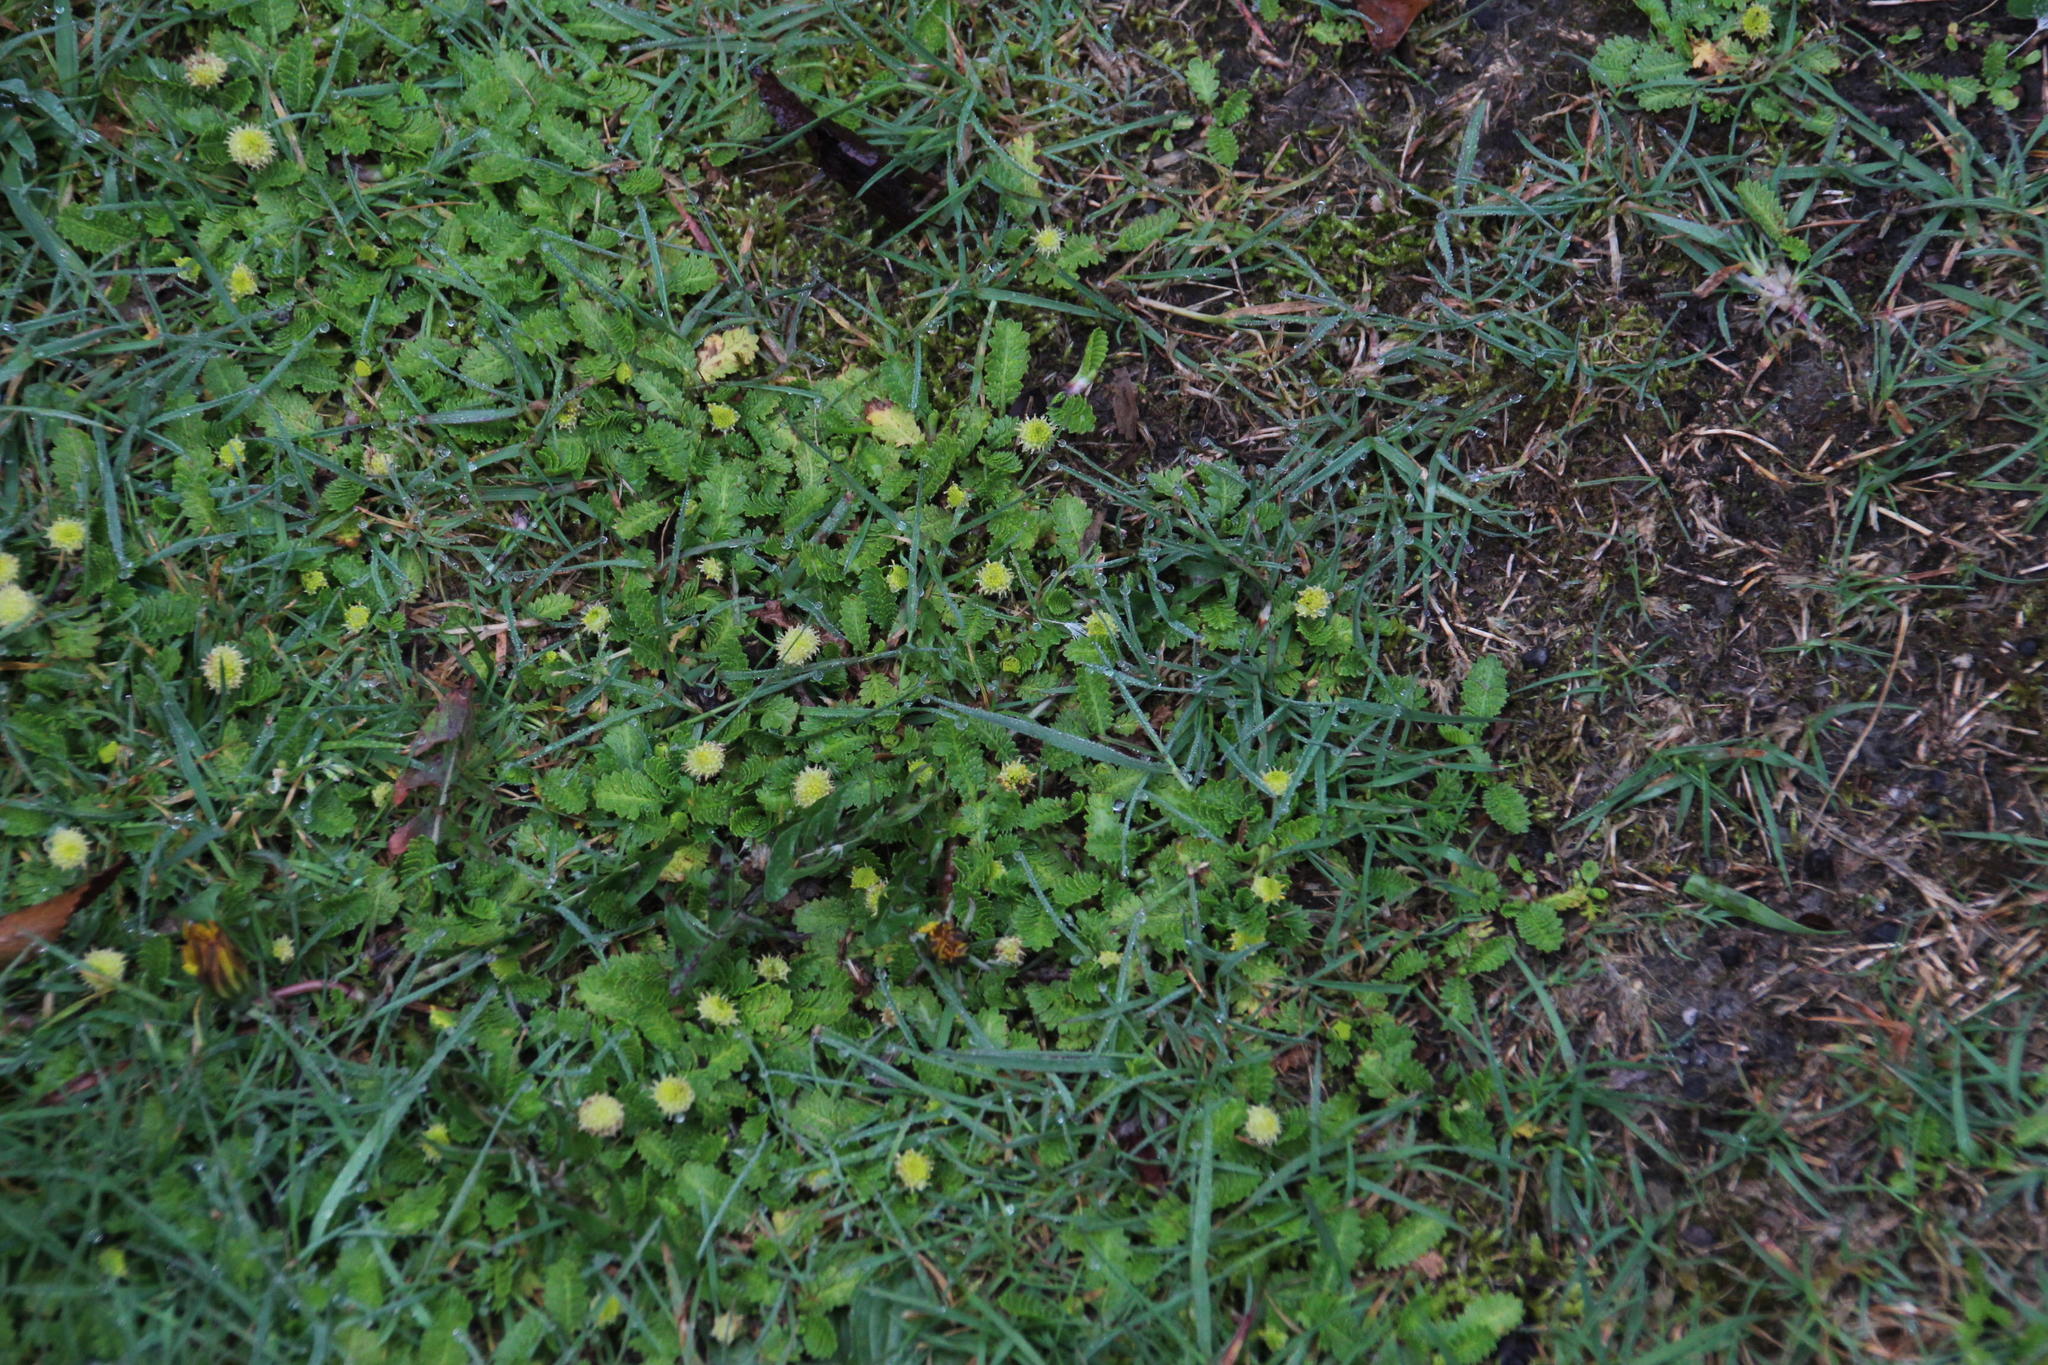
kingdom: Plantae
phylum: Tracheophyta
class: Magnoliopsida
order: Asterales
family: Asteraceae
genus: Leptinella
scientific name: Leptinella scariosa
